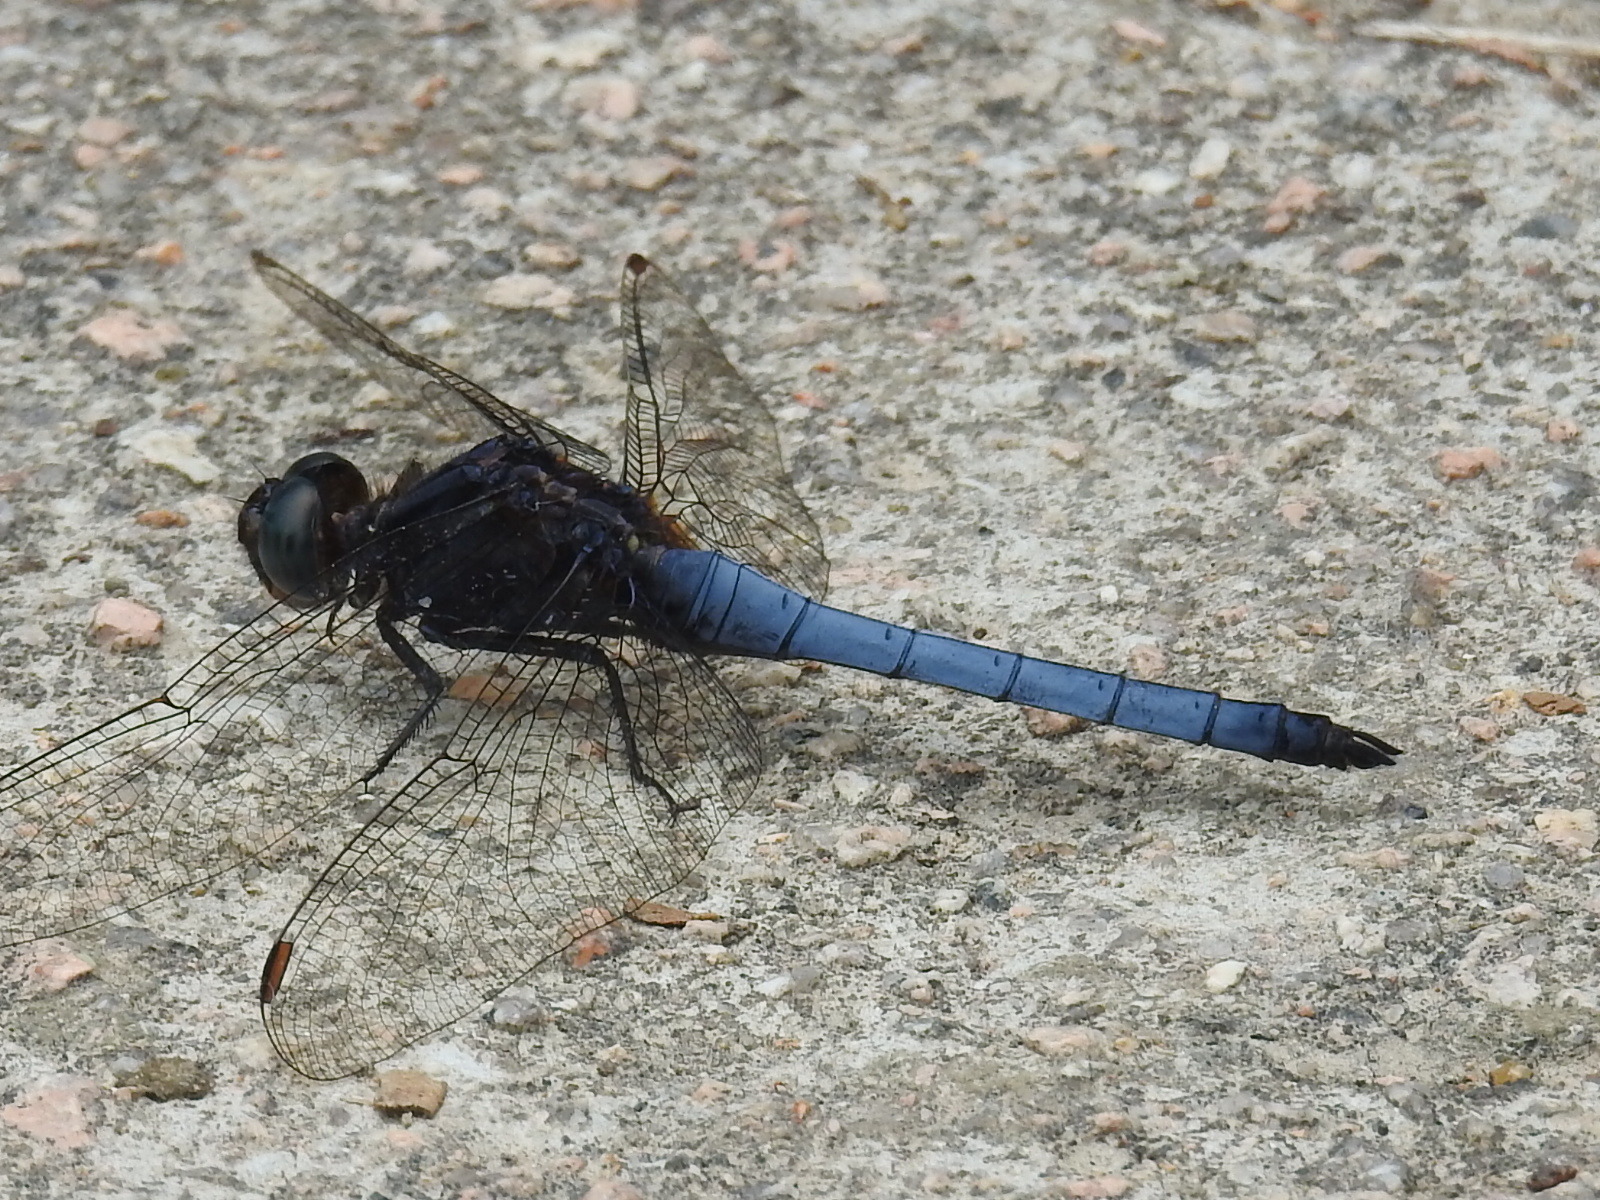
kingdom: Animalia
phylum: Arthropoda
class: Insecta
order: Odonata
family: Libellulidae
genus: Orthetrum
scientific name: Orthetrum glaucum
